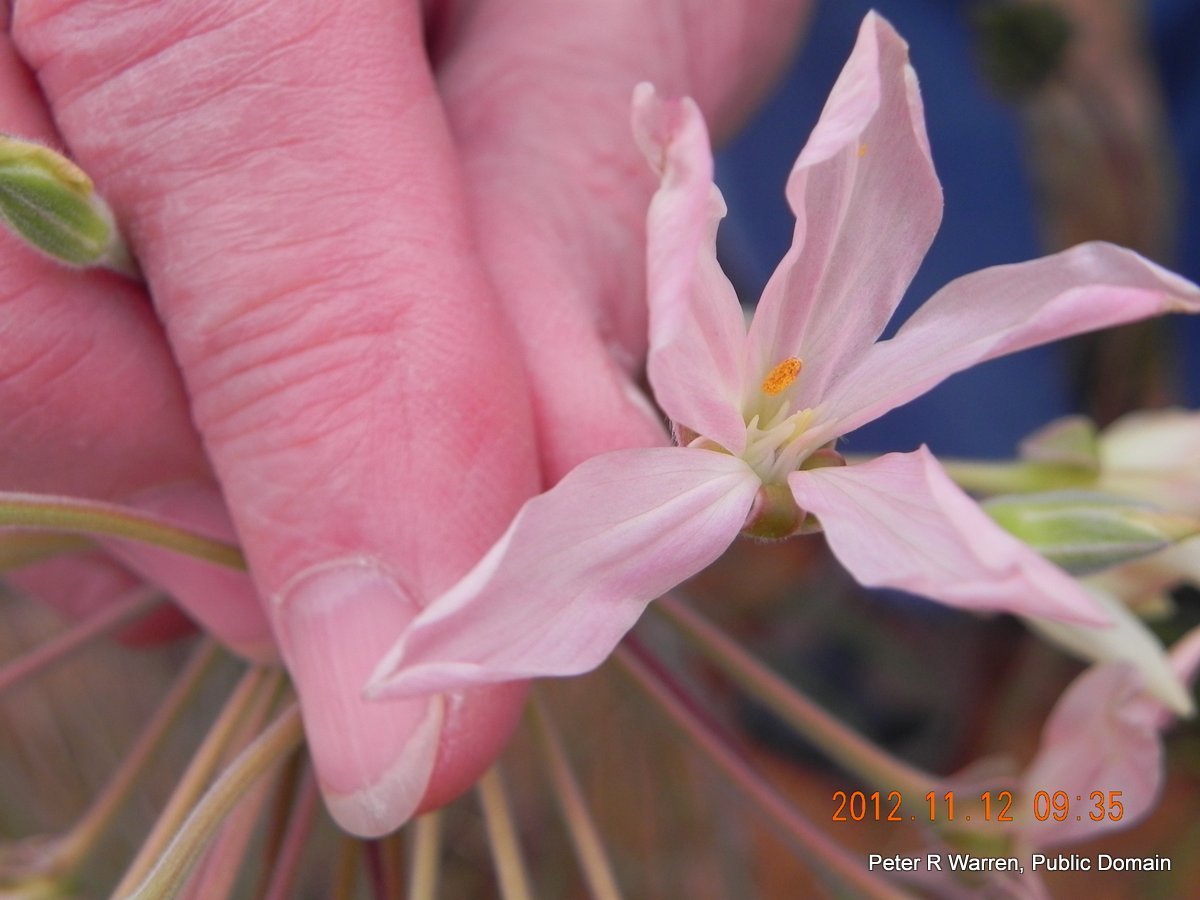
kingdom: Plantae
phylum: Tracheophyta
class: Magnoliopsida
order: Geraniales
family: Geraniaceae
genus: Pelargonium
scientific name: Pelargonium luridum
